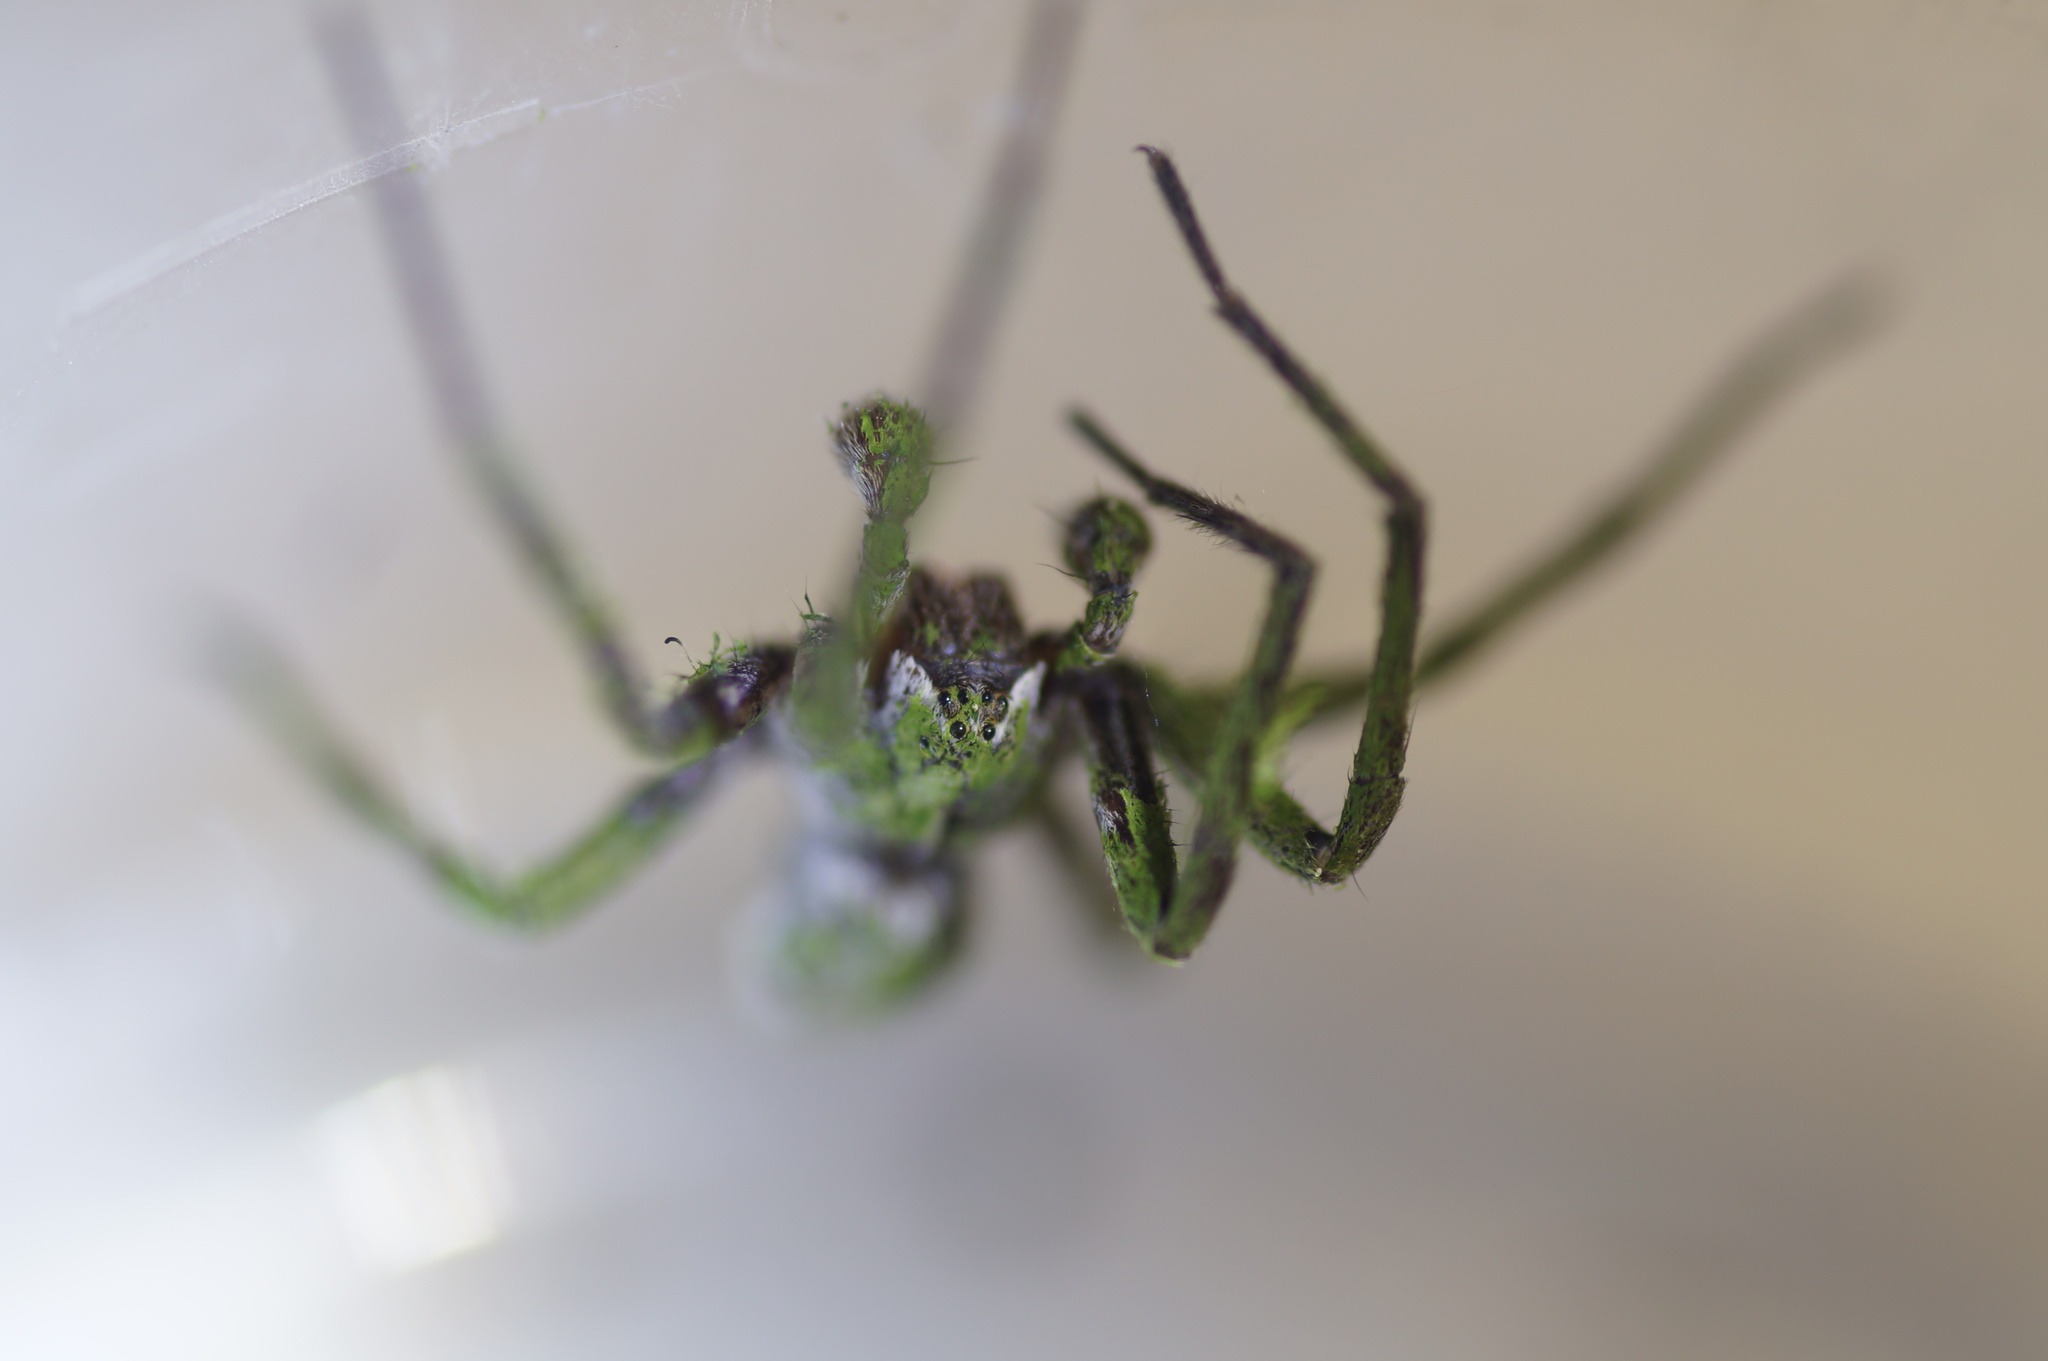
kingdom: Animalia
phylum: Arthropoda
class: Arachnida
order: Araneae
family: Pisauridae
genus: Pisaura
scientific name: Pisaura mirabilis
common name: Tent spider
